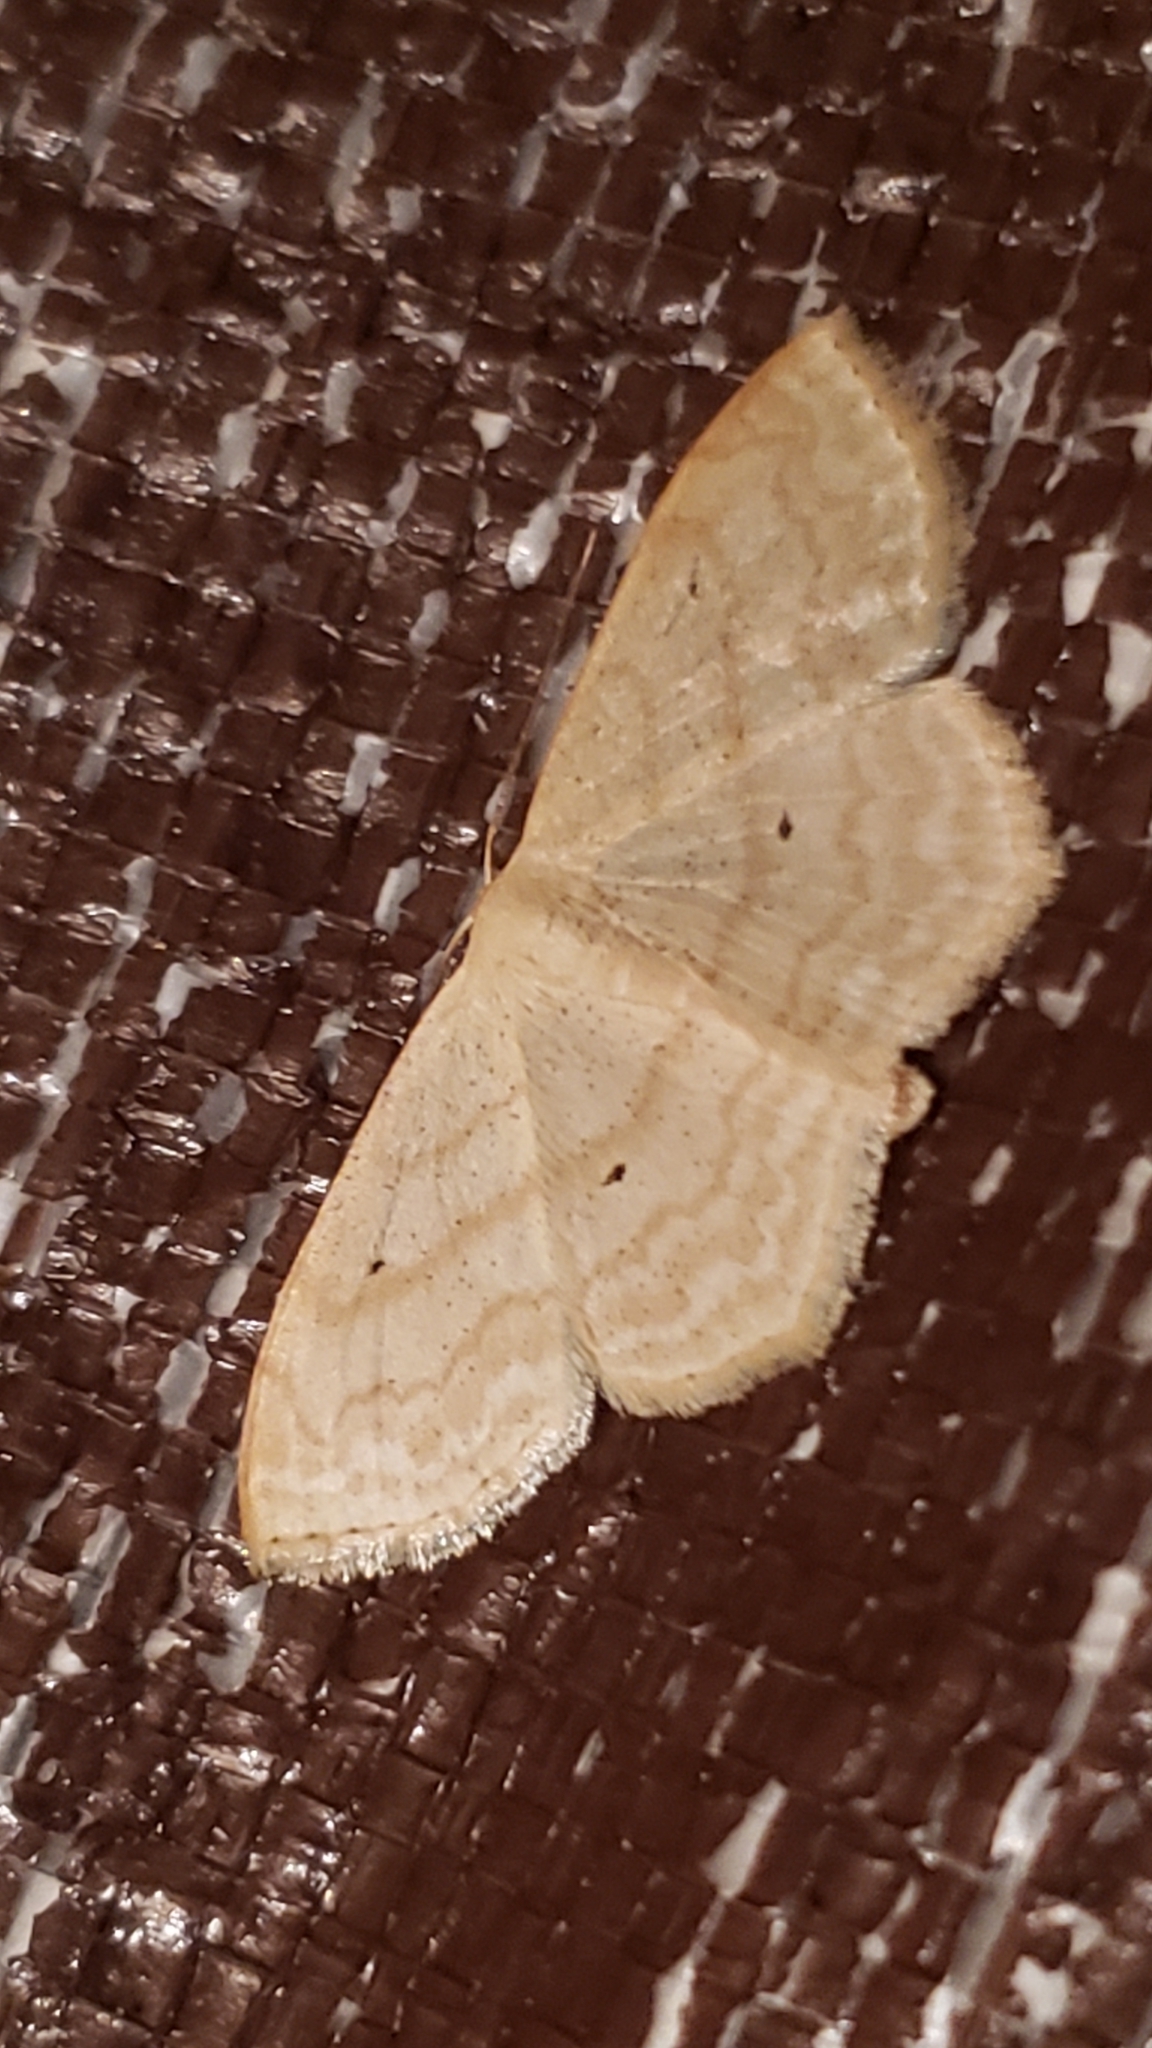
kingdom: Animalia
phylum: Arthropoda
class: Insecta
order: Lepidoptera
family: Geometridae
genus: Scopula
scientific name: Scopula limboundata
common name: Large lace border
